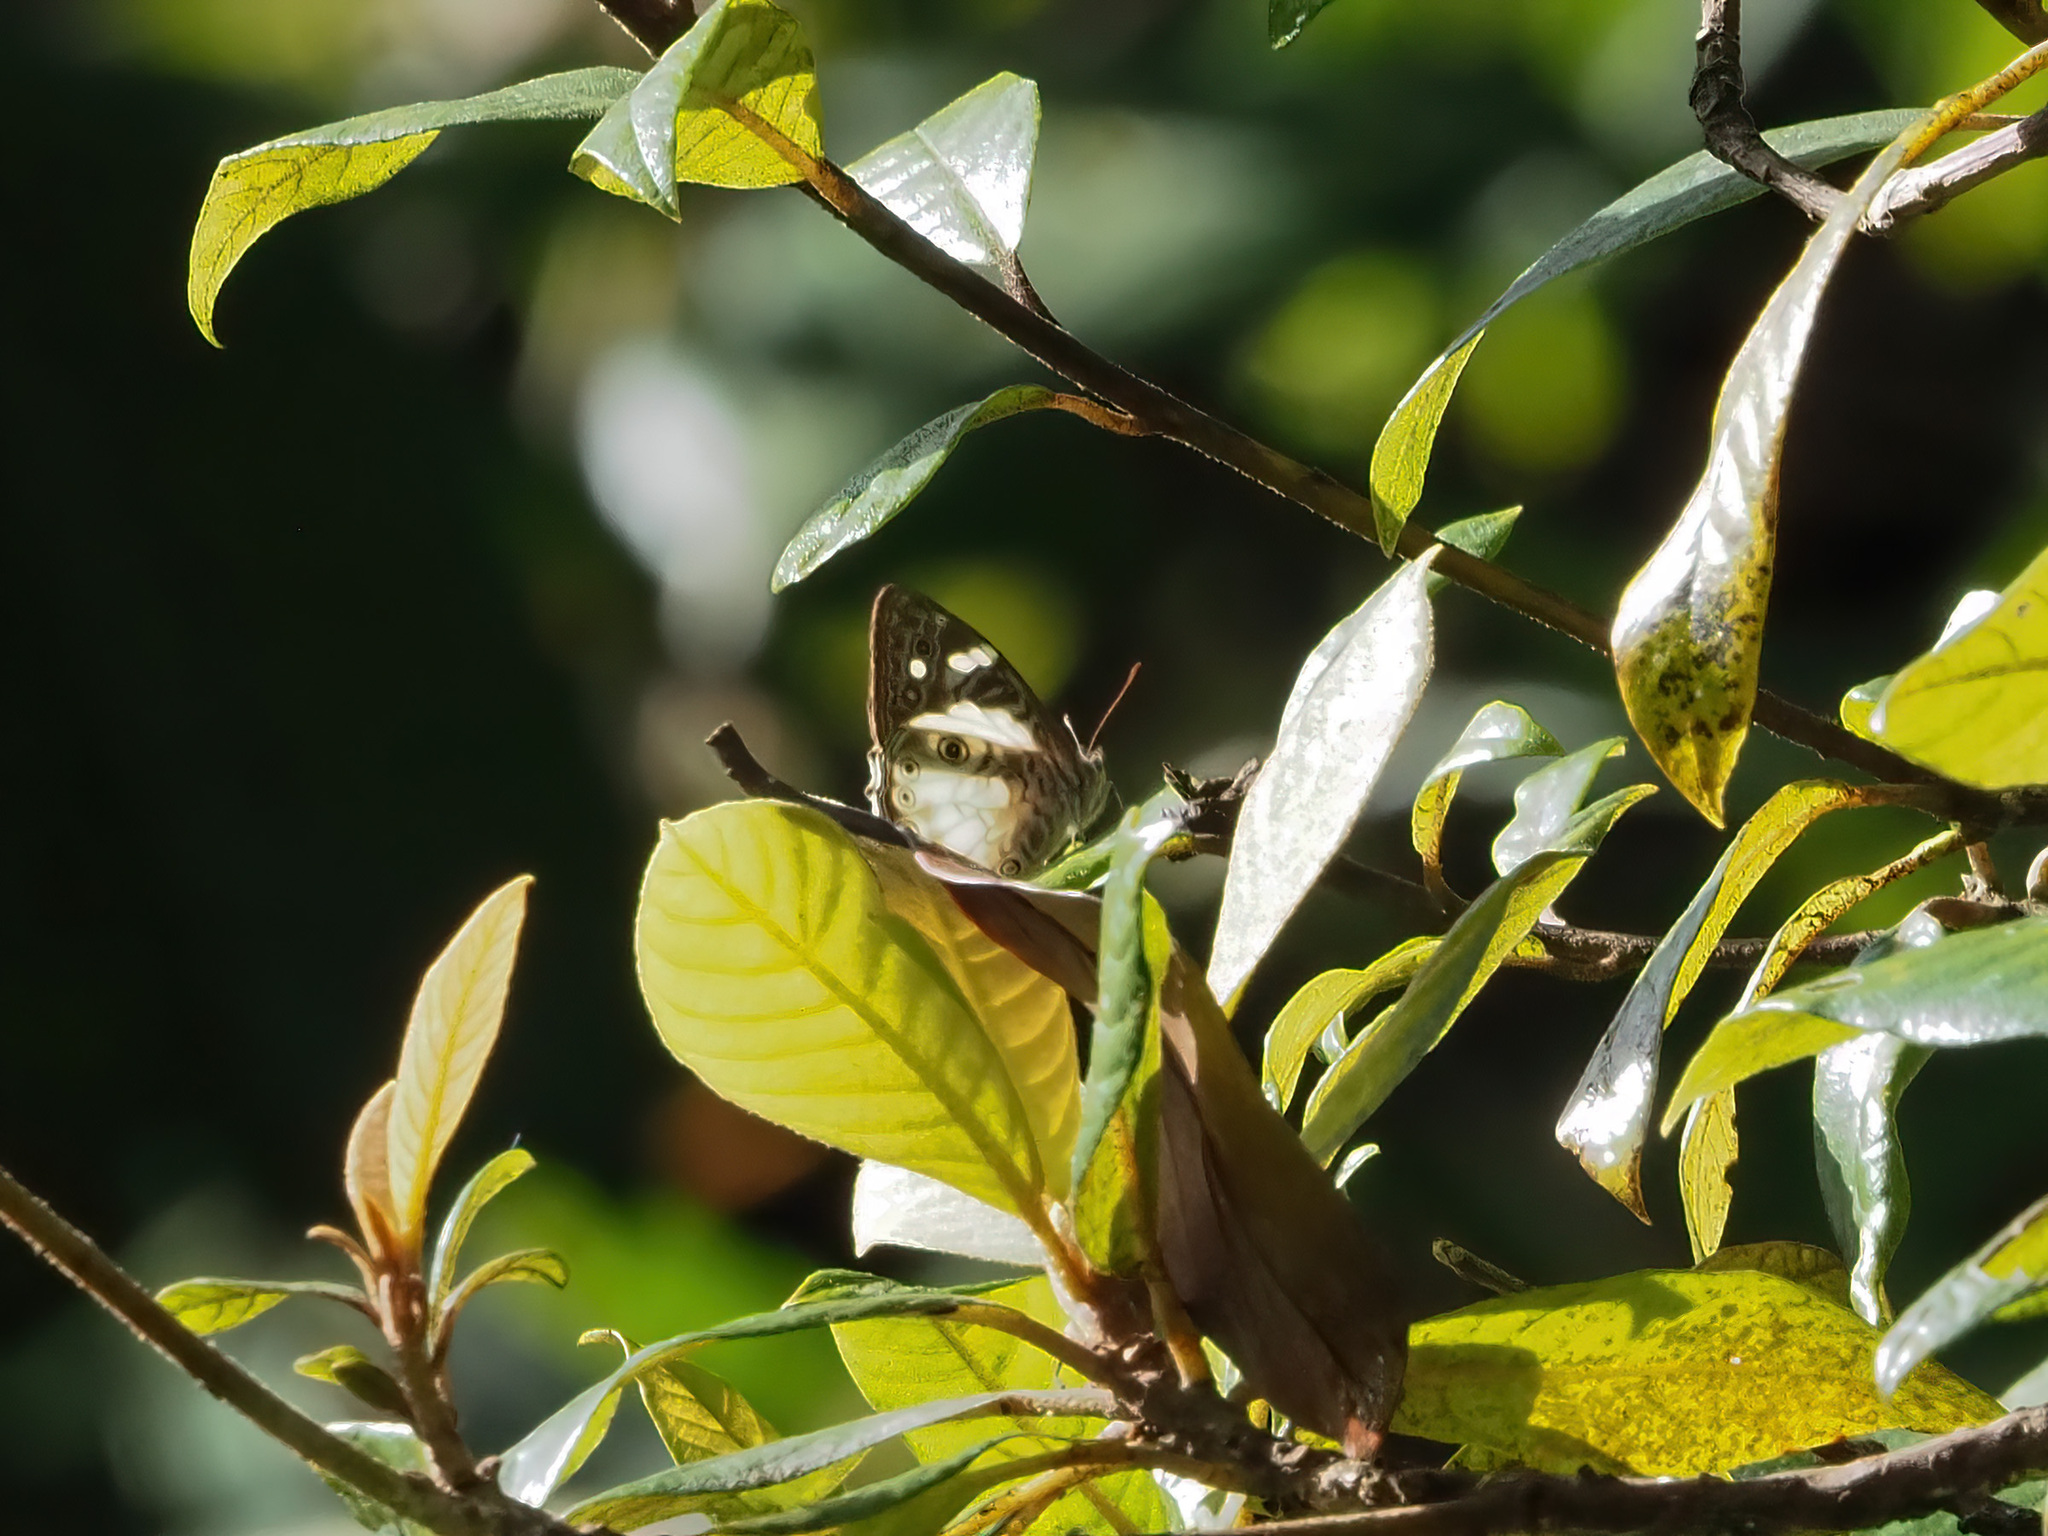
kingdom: Animalia
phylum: Arthropoda
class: Insecta
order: Lepidoptera
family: Nymphalidae
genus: Ptychandra
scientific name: Ptychandra talboti
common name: Bornean satyr
